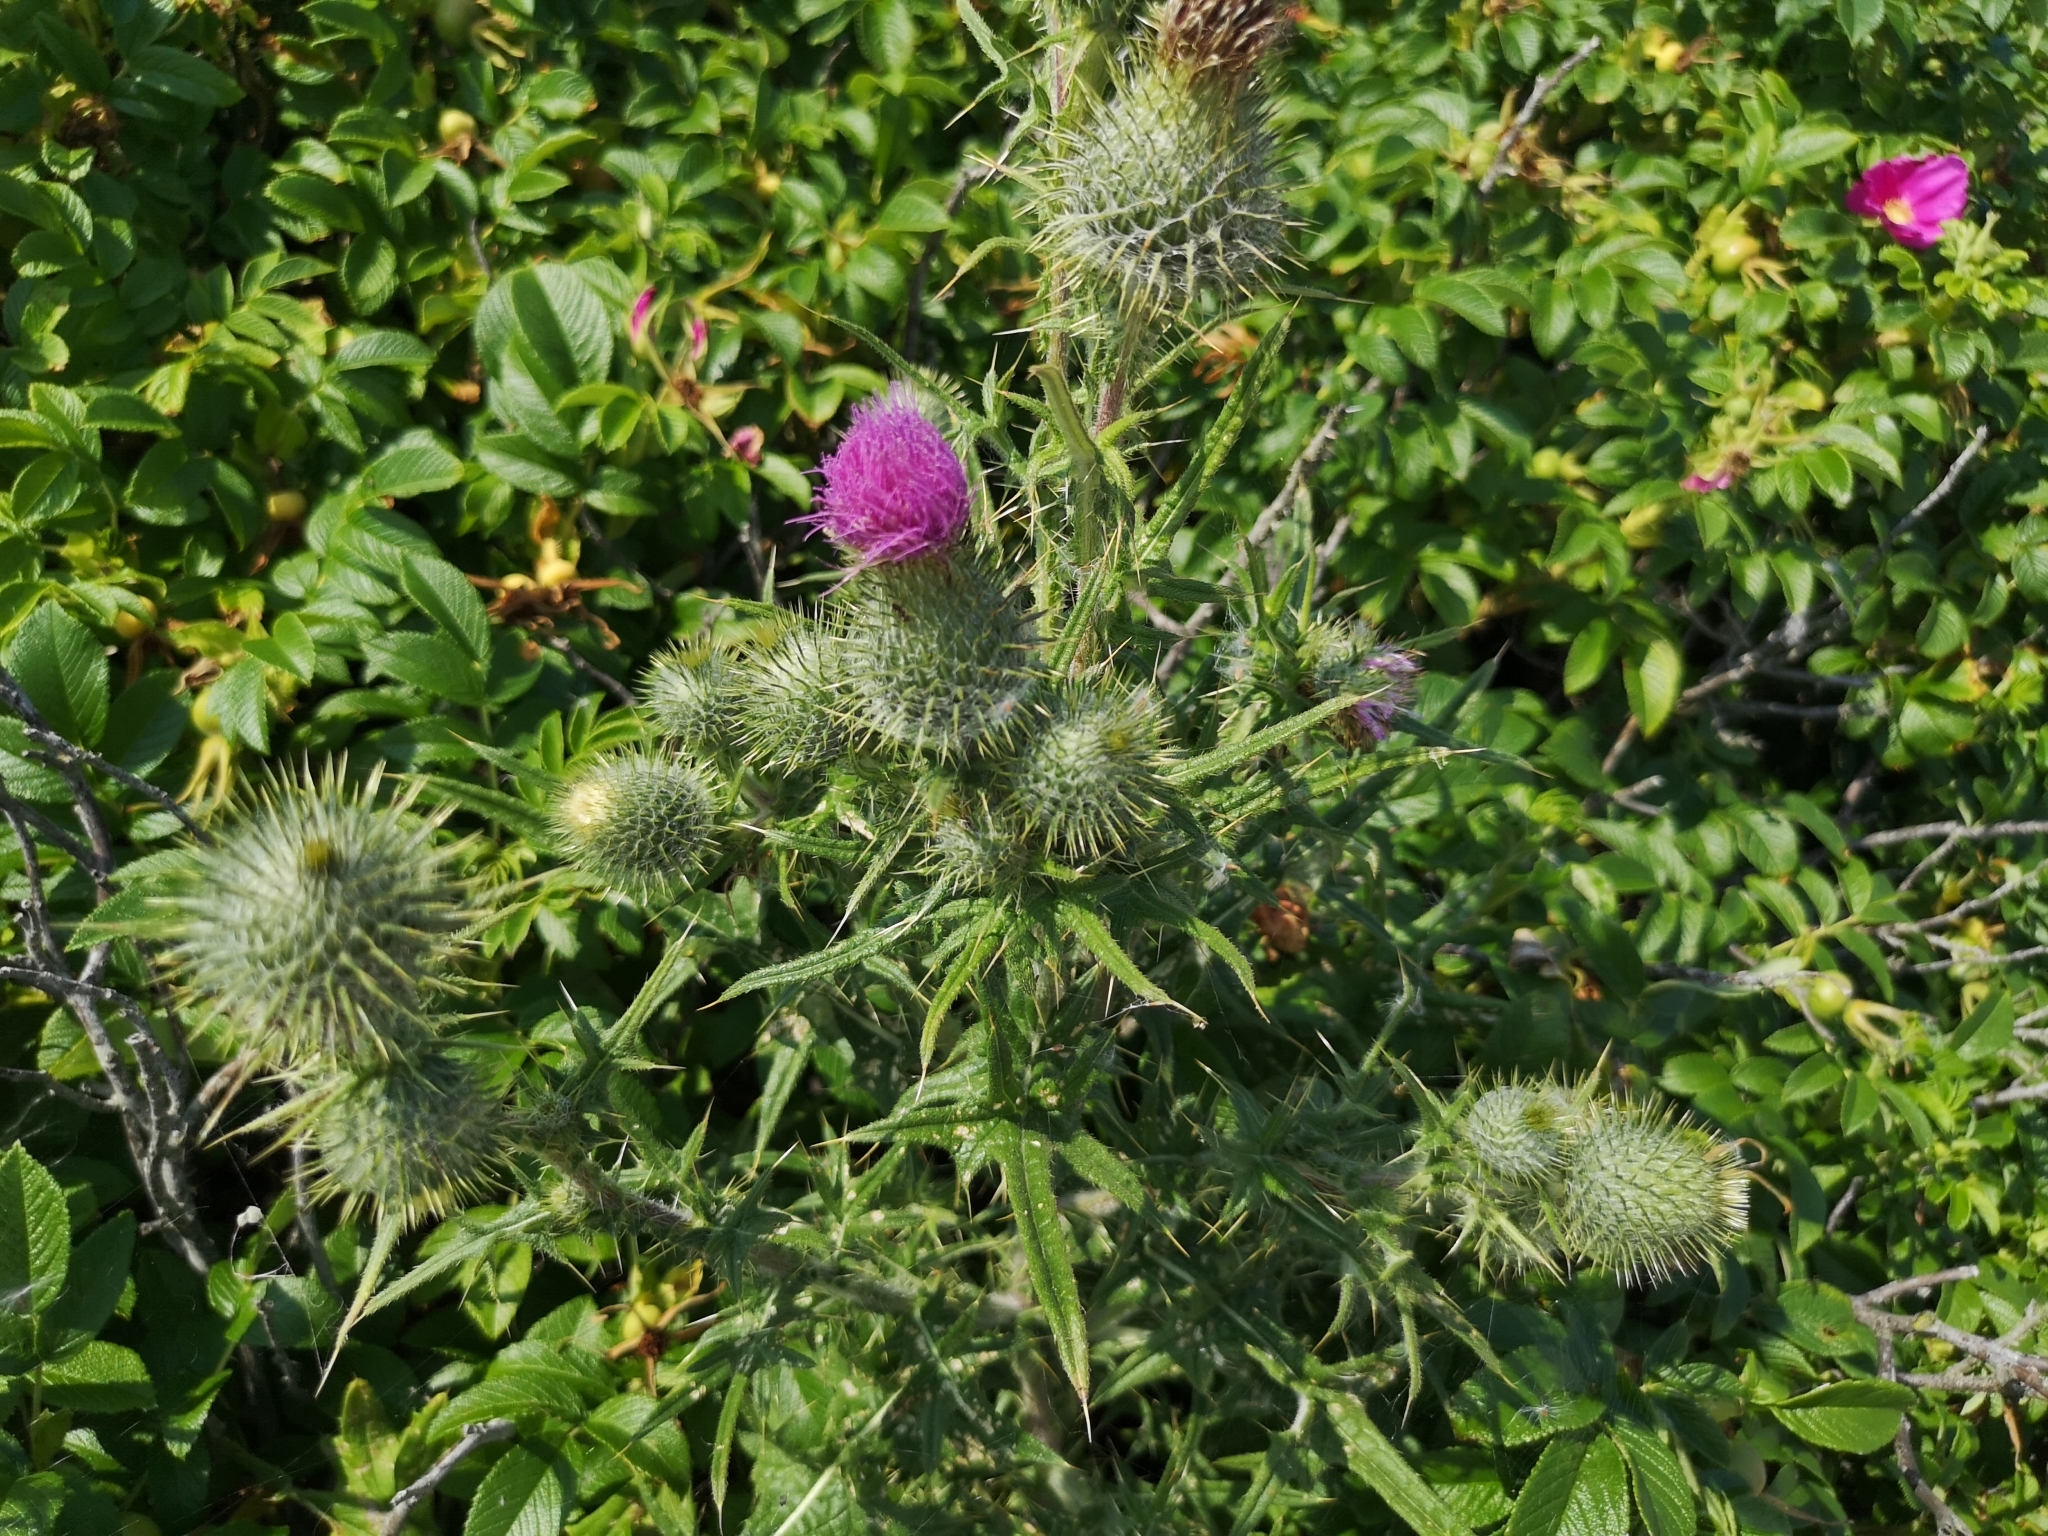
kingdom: Plantae
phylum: Tracheophyta
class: Magnoliopsida
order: Asterales
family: Asteraceae
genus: Cirsium
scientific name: Cirsium vulgare
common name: Bull thistle
